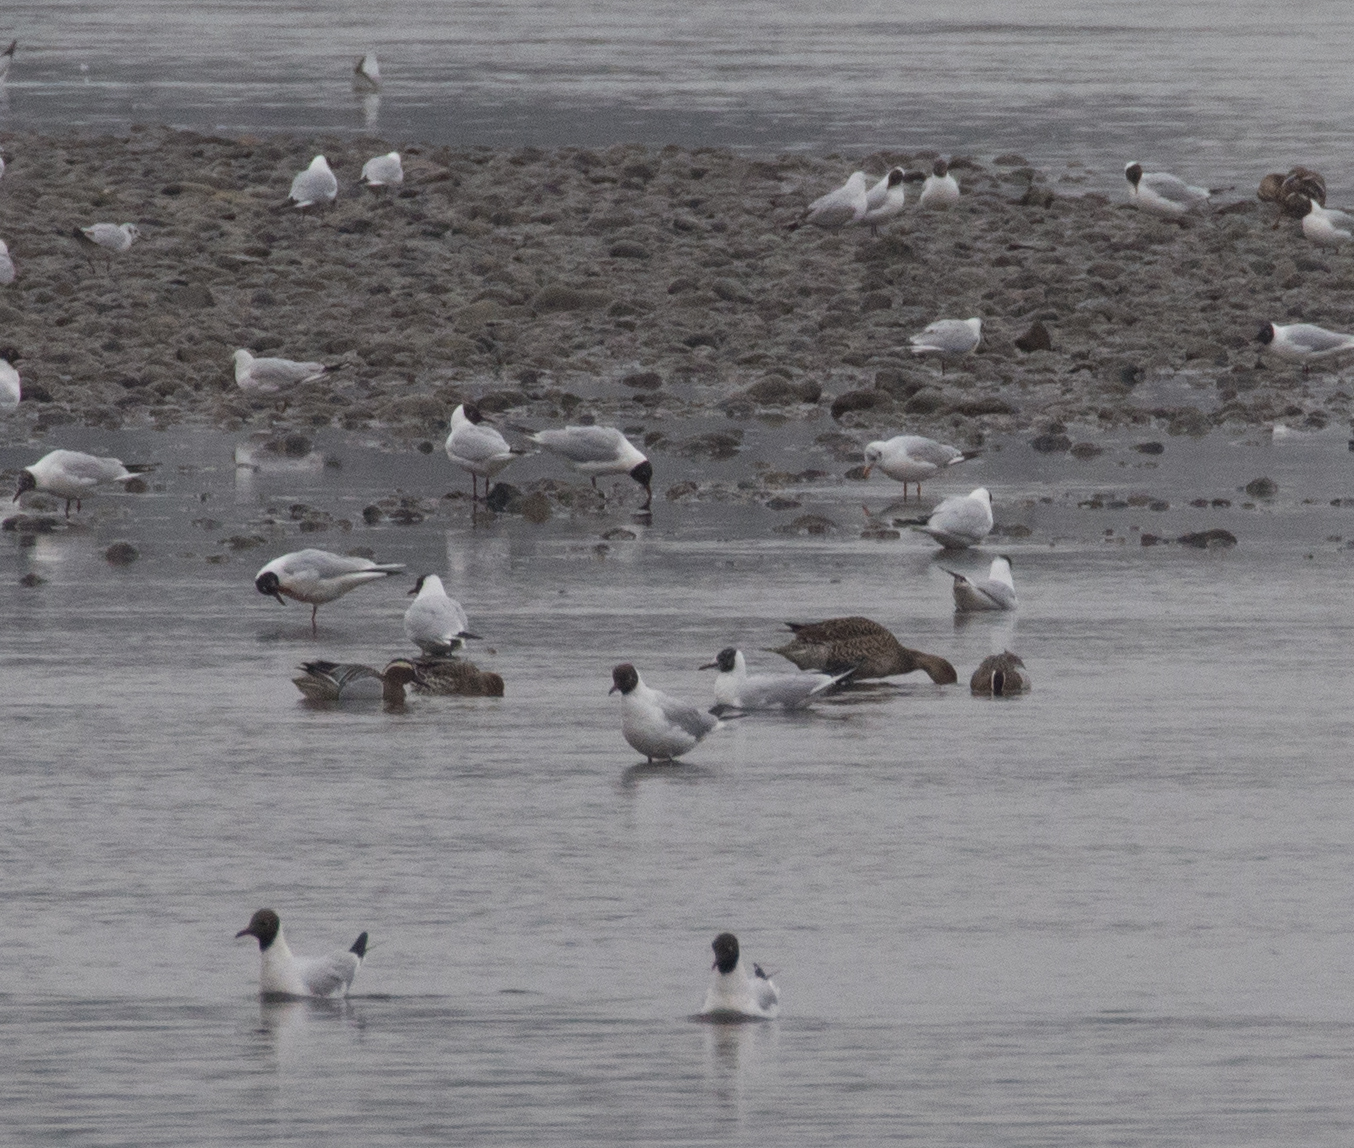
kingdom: Animalia
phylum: Chordata
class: Aves
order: Anseriformes
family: Anatidae
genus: Anas
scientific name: Anas acuta
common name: Northern pintail
